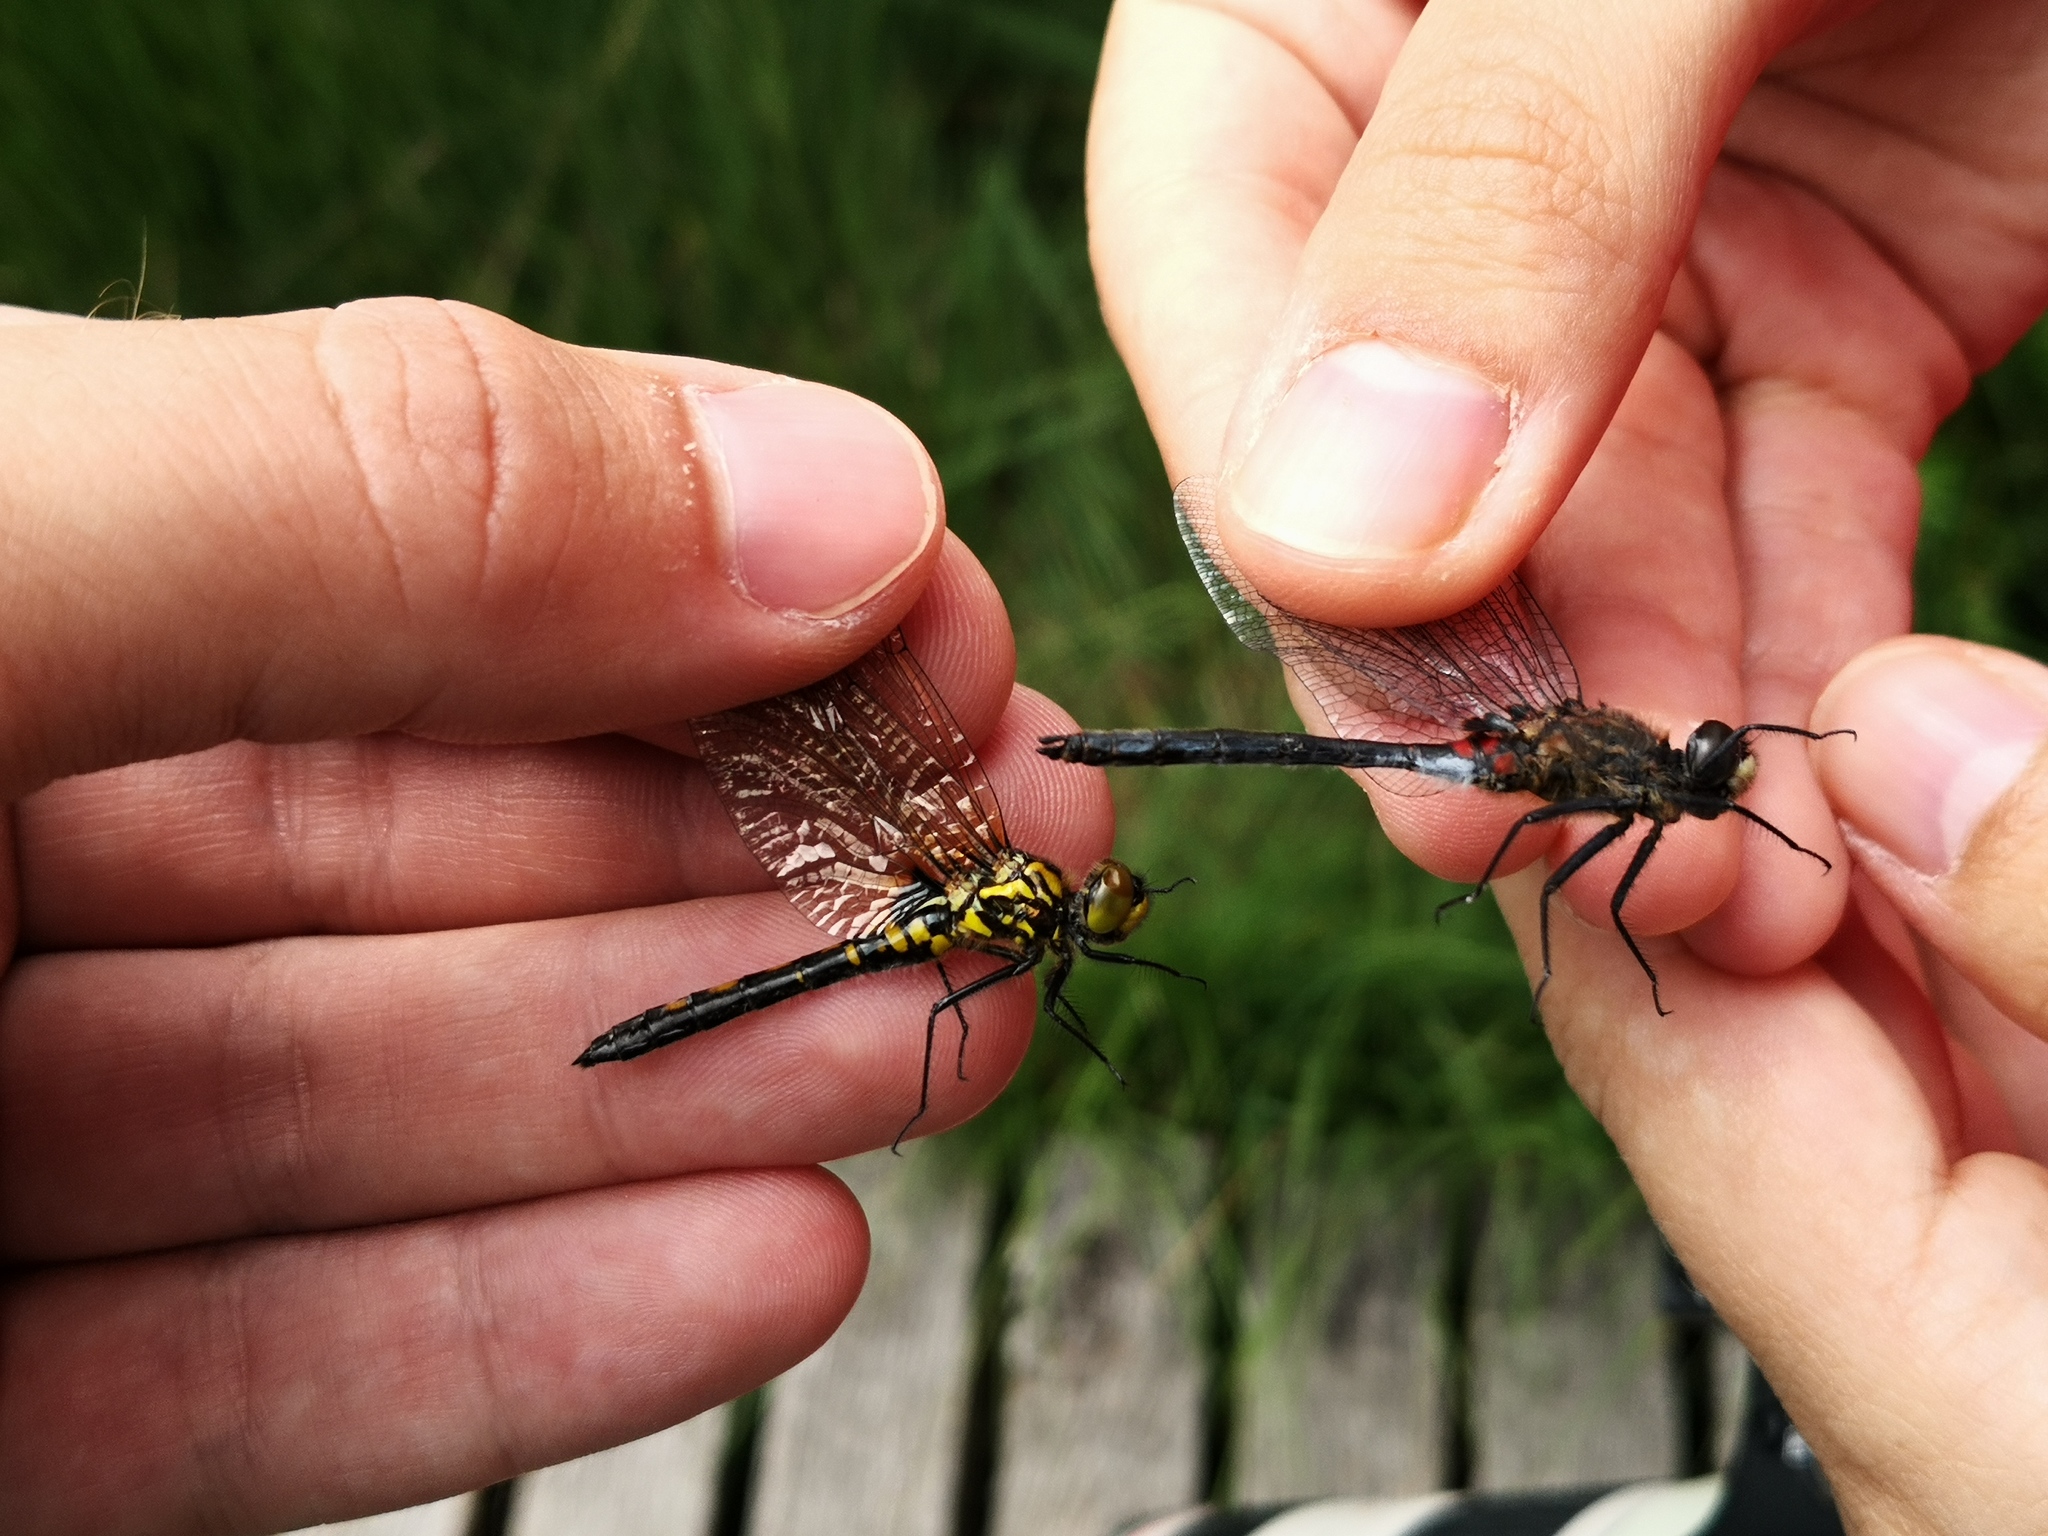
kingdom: Animalia
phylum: Arthropoda
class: Insecta
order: Odonata
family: Libellulidae
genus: Leucorrhinia
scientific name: Leucorrhinia dubia
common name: White-faced darter
